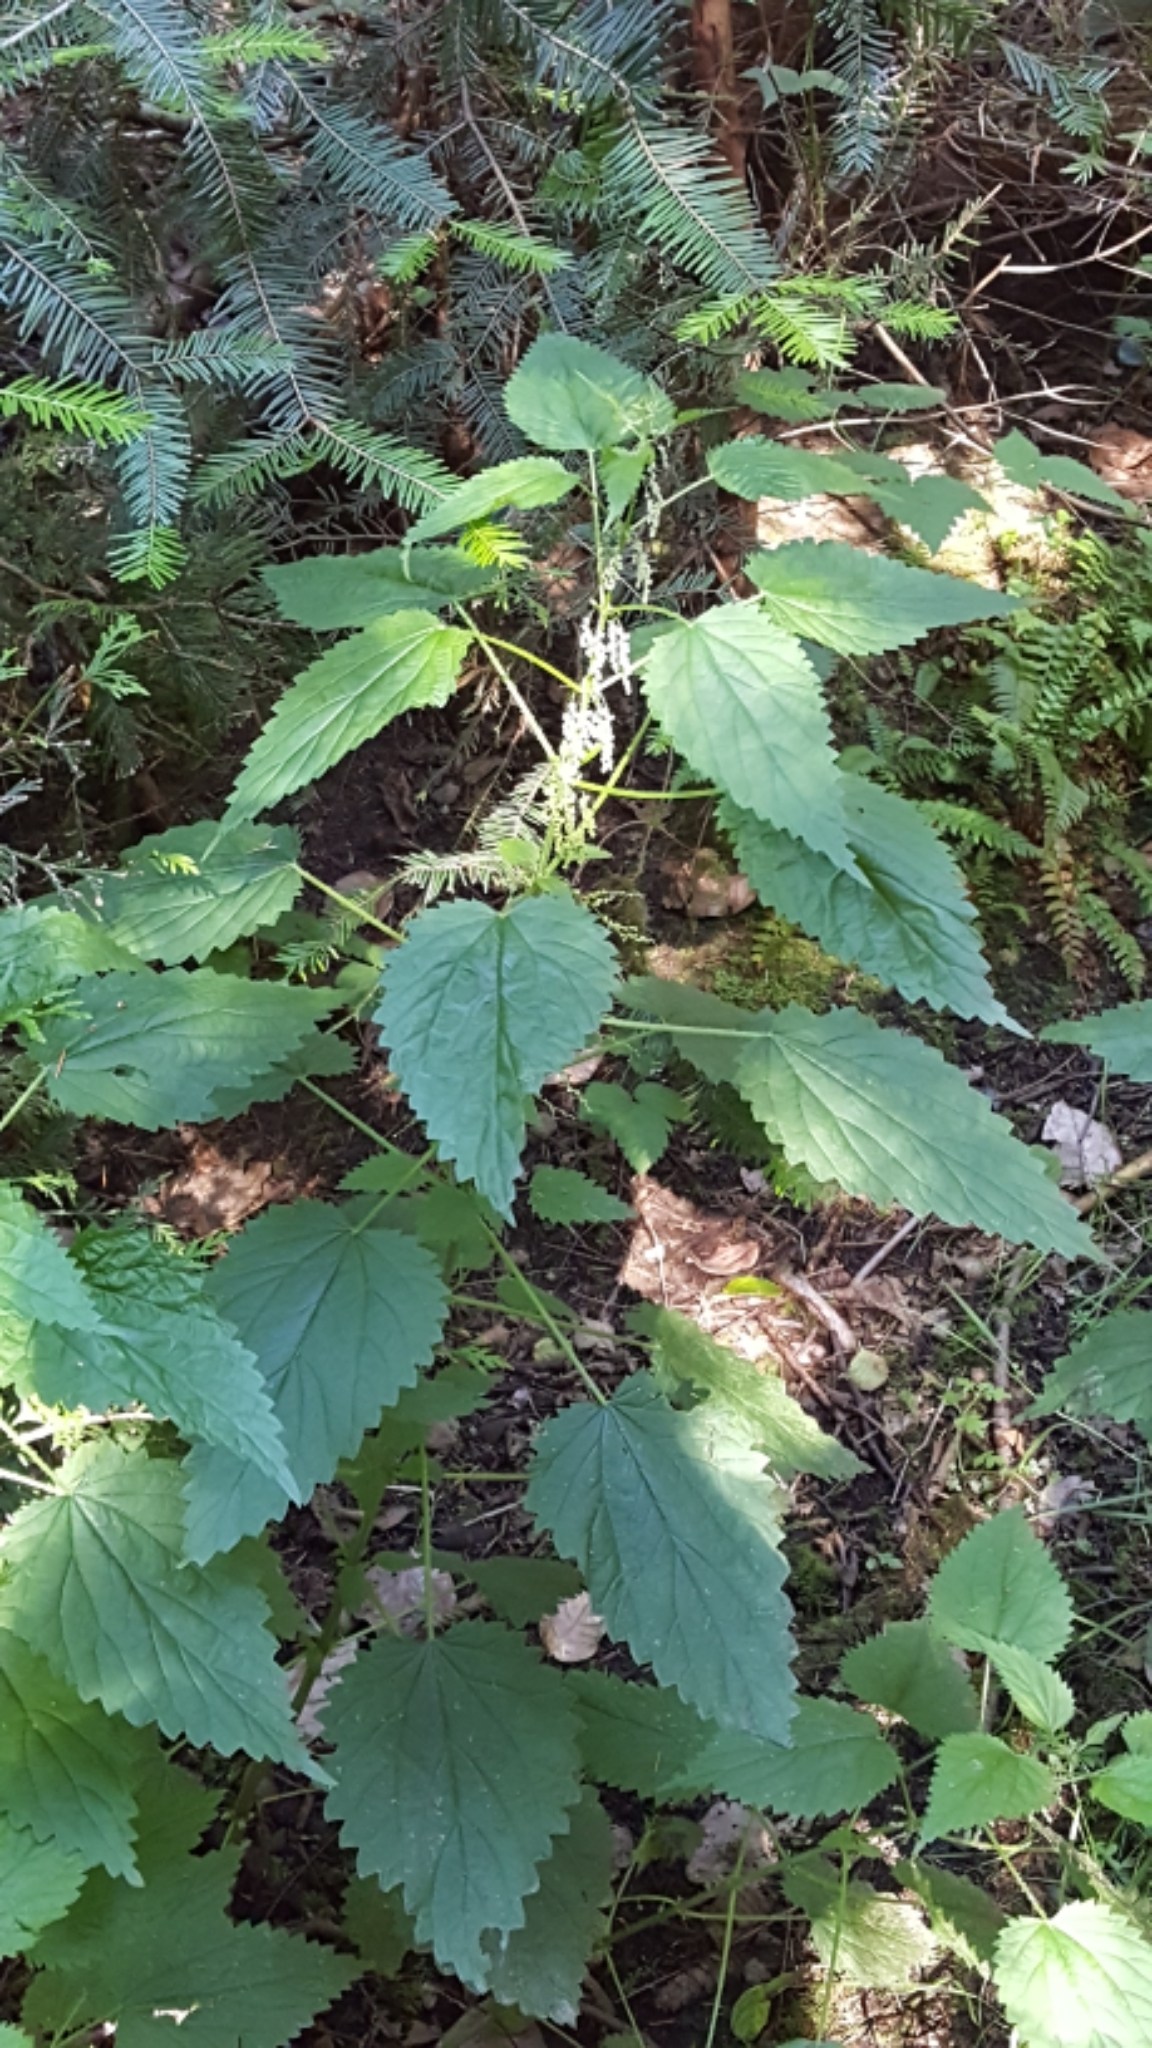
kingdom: Plantae
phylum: Tracheophyta
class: Magnoliopsida
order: Rosales
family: Urticaceae
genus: Urtica
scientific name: Urtica dioica
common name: Common nettle
